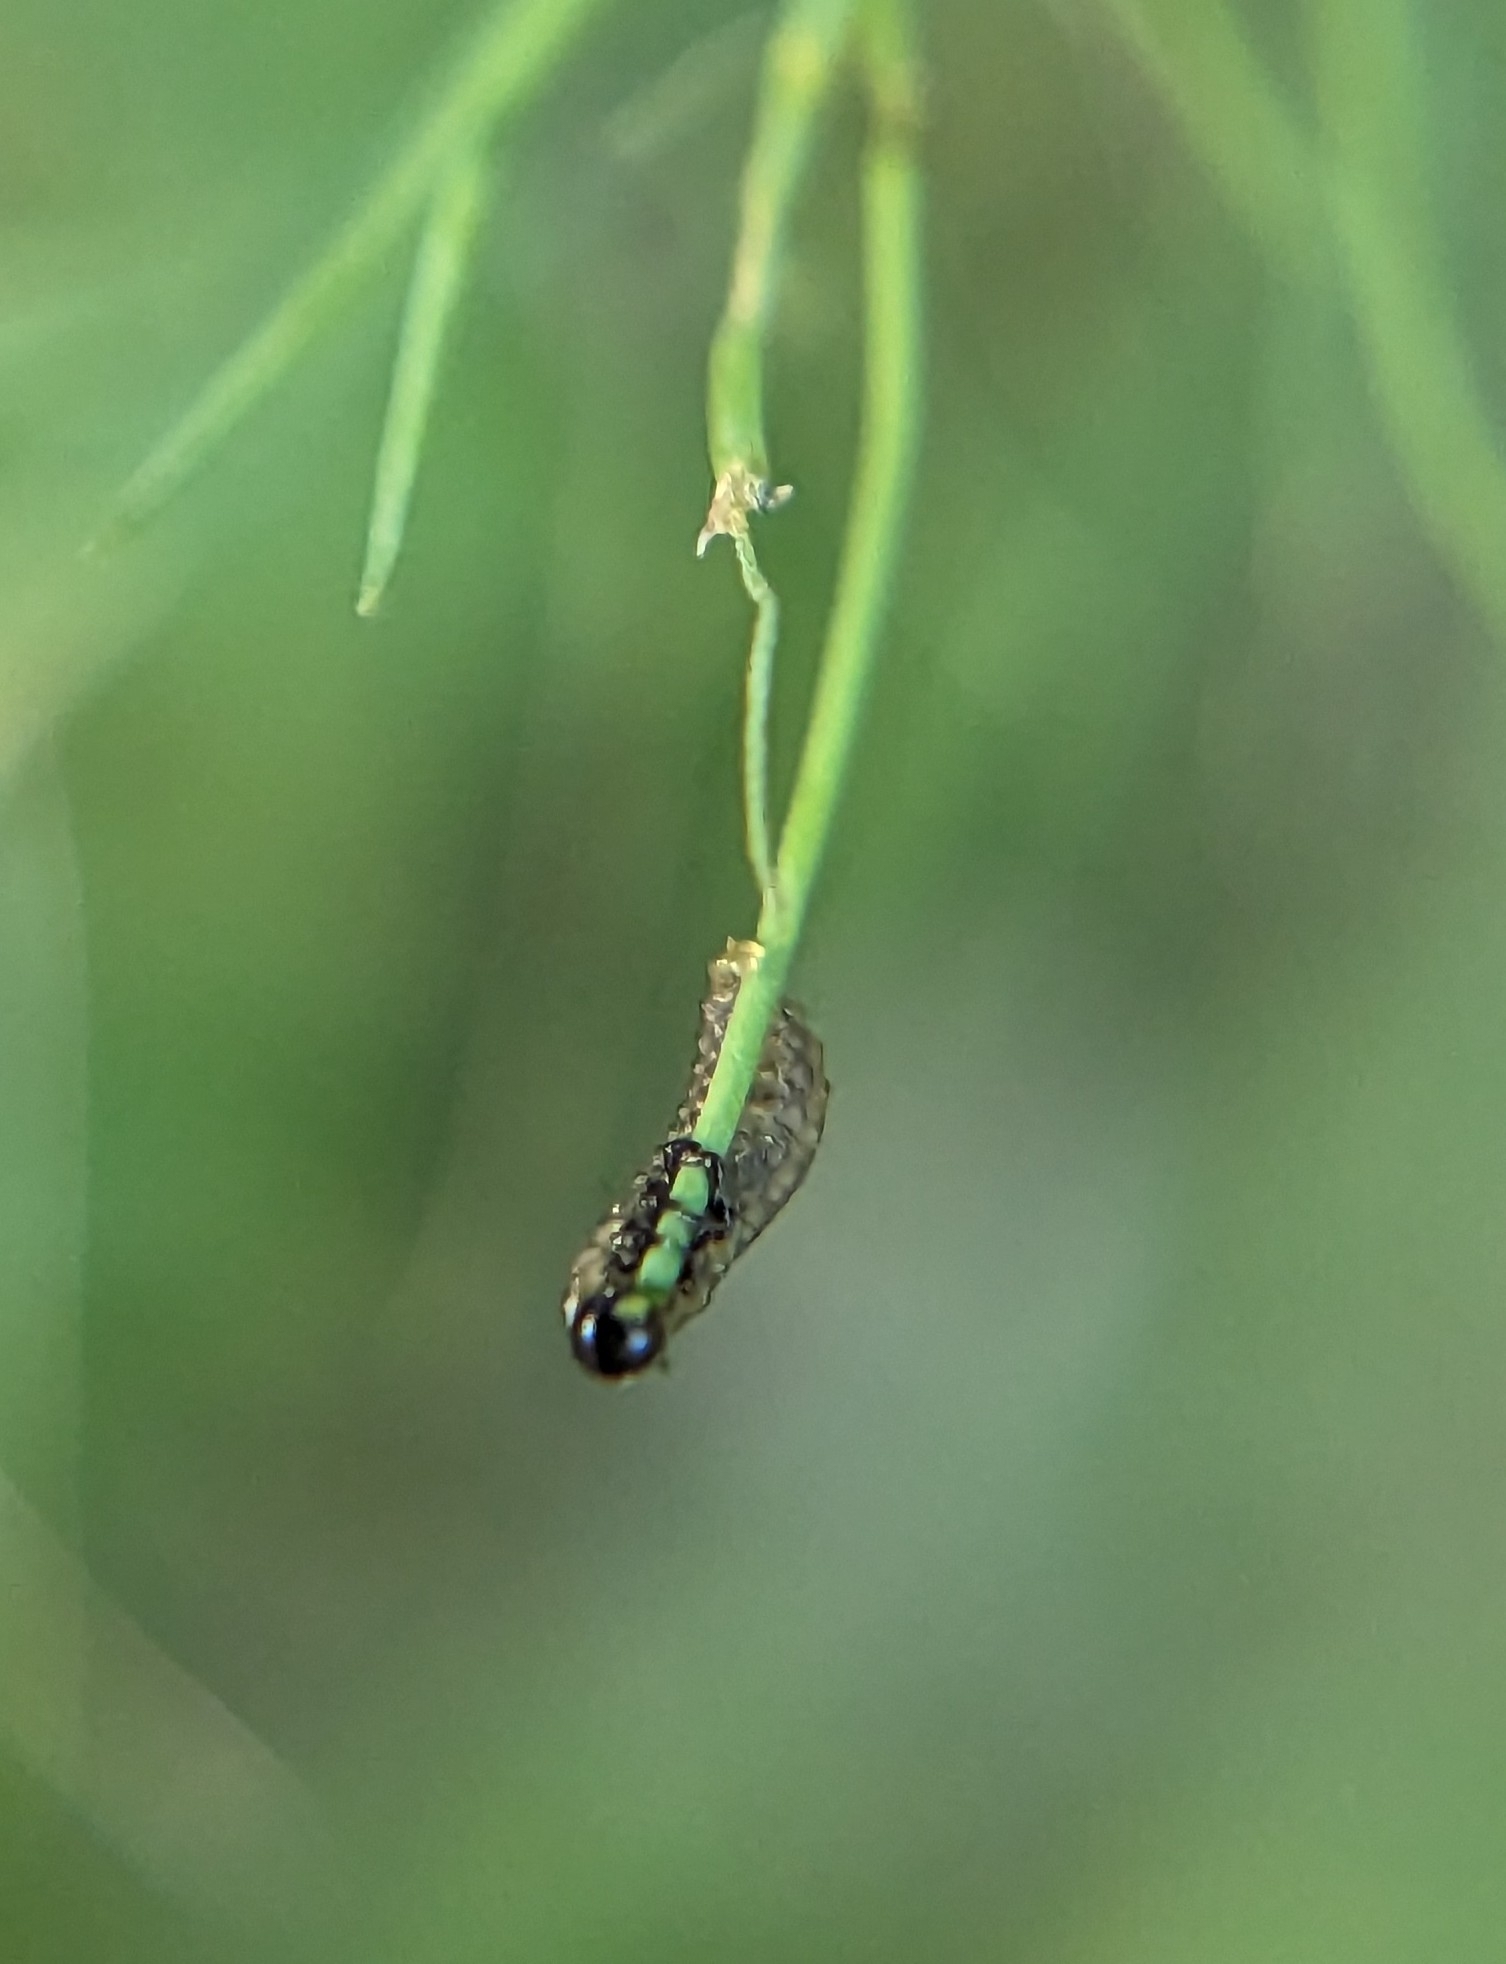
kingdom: Animalia
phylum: Arthropoda
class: Insecta
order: Coleoptera
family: Chrysomelidae
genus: Crioceris
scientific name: Crioceris asparagi
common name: Asparagus beetle
